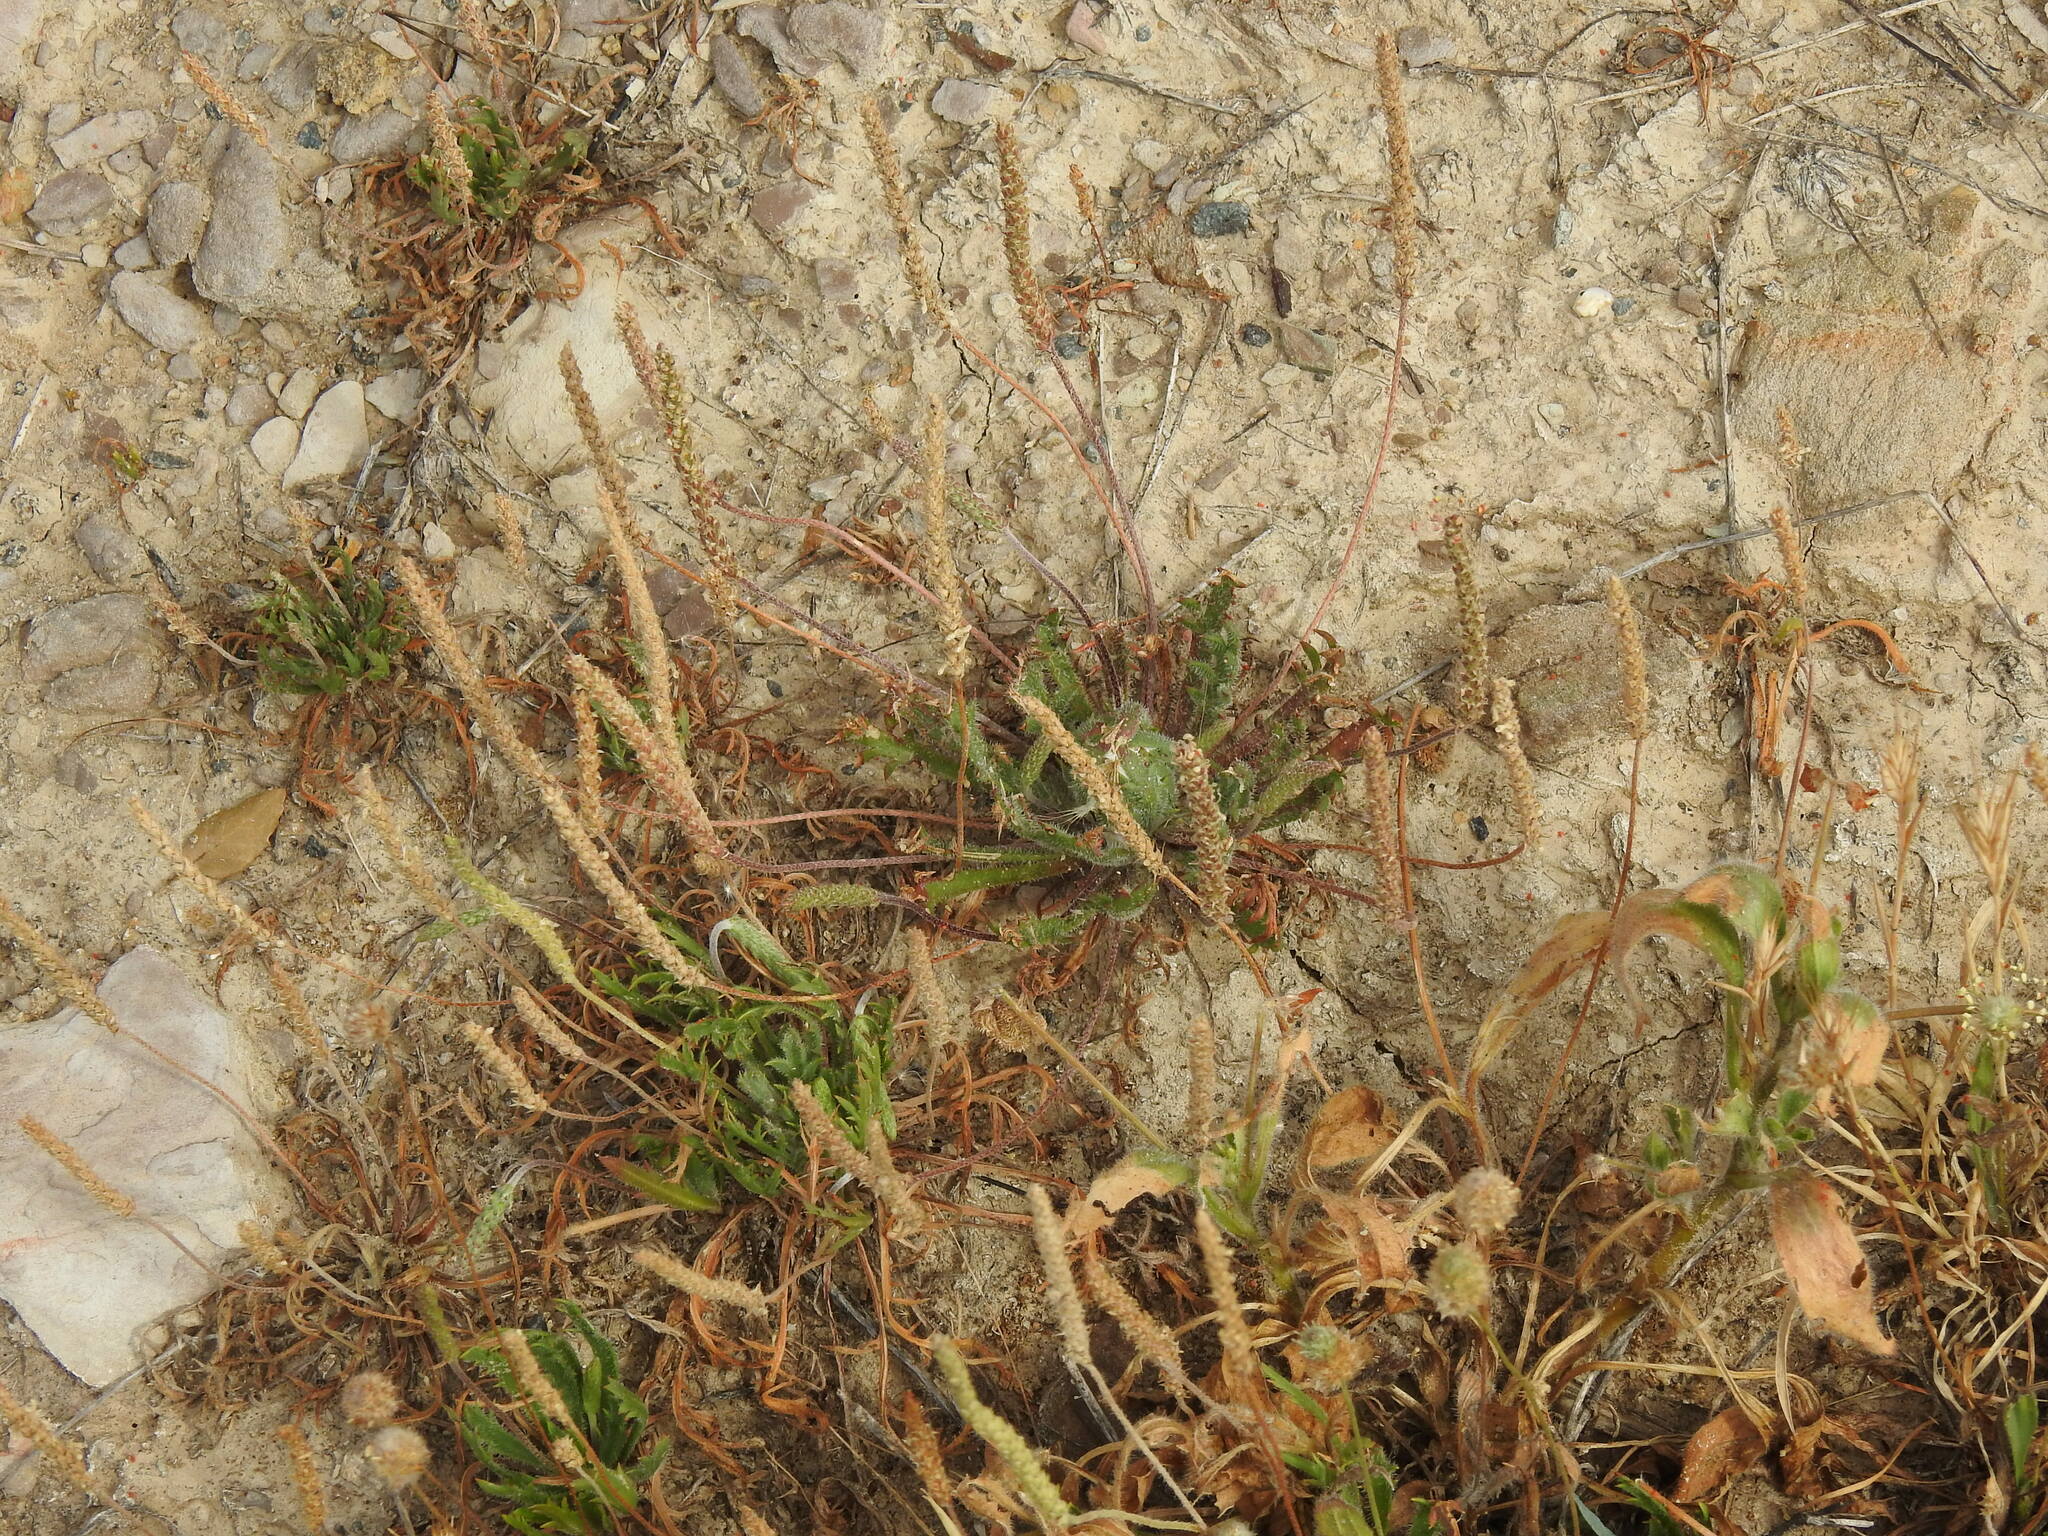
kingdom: Plantae
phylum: Tracheophyta
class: Magnoliopsida
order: Lamiales
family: Plantaginaceae
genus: Plantago
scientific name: Plantago coronopus
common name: Buck's-horn plantain
